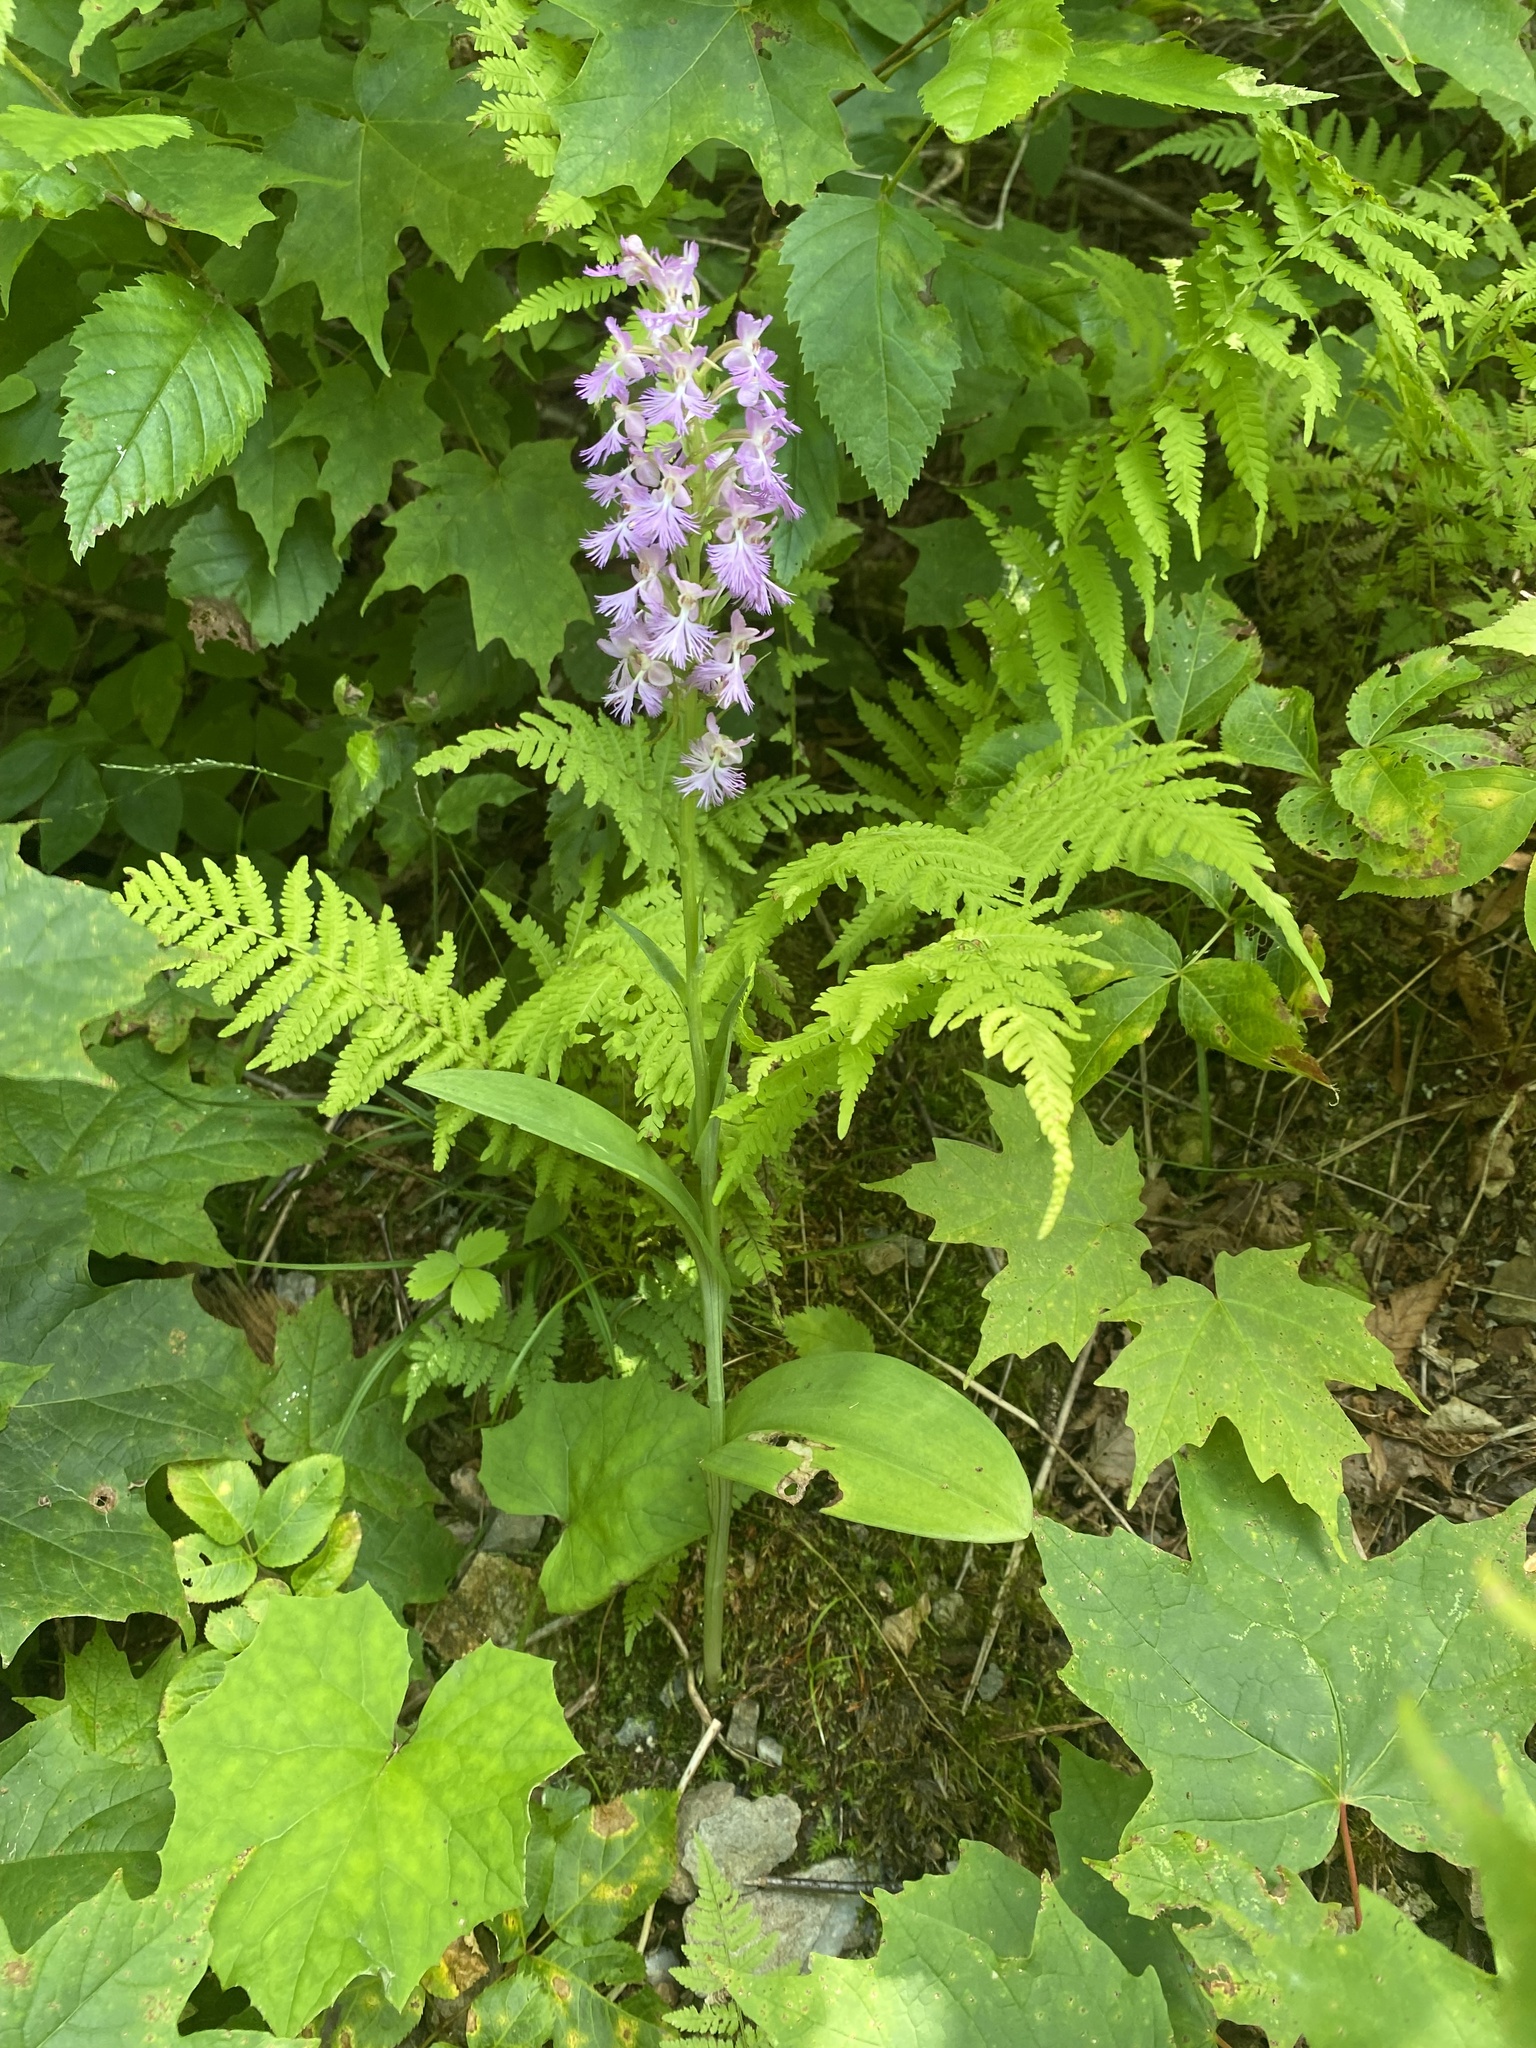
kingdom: Plantae
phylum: Tracheophyta
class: Liliopsida
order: Asparagales
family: Orchidaceae
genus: Platanthera
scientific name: Platanthera andrewsii
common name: Andrews' bog orchid
